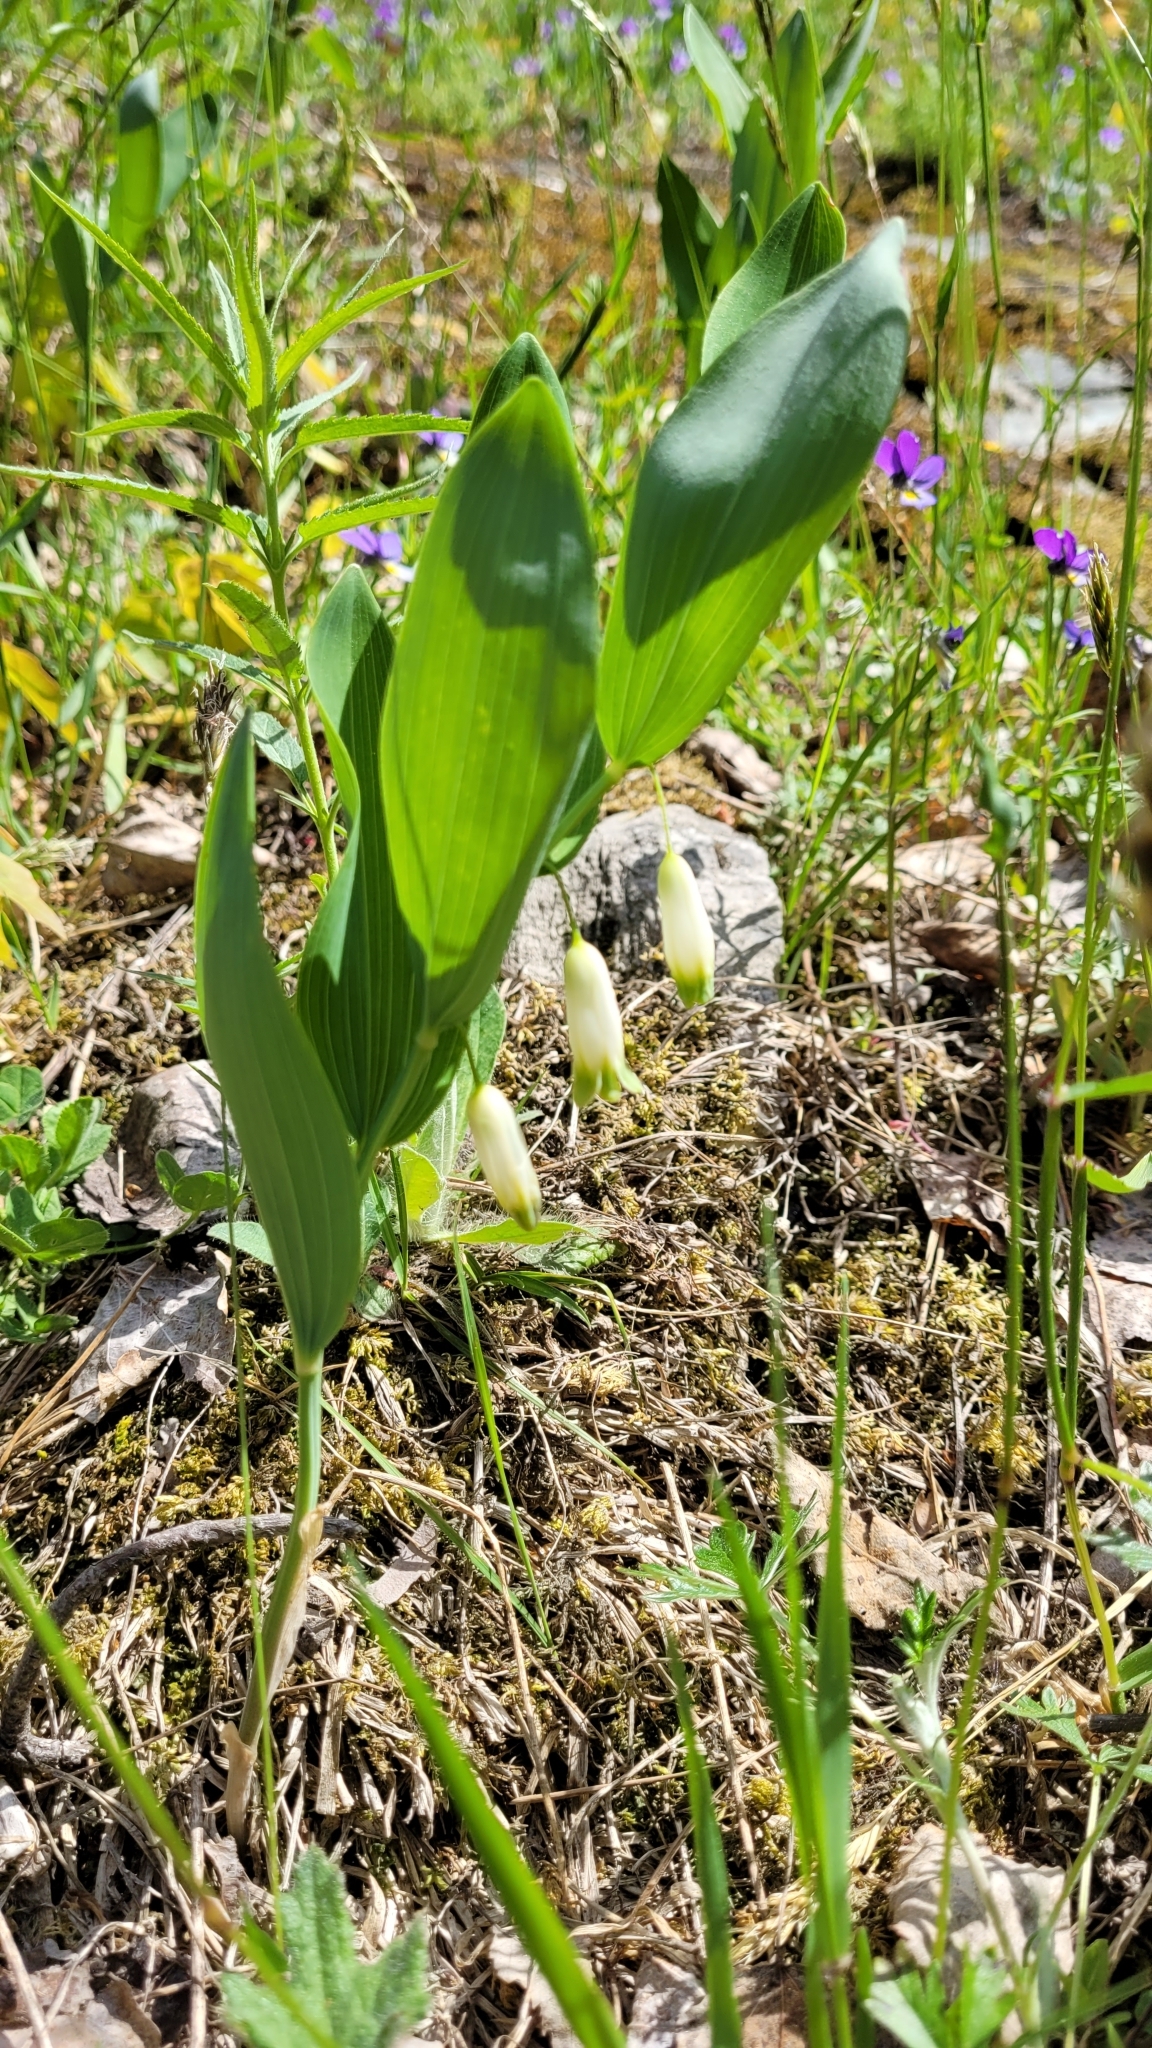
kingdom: Plantae
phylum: Tracheophyta
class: Liliopsida
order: Asparagales
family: Asparagaceae
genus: Polygonatum
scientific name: Polygonatum odoratum
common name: Angular solomon's-seal
